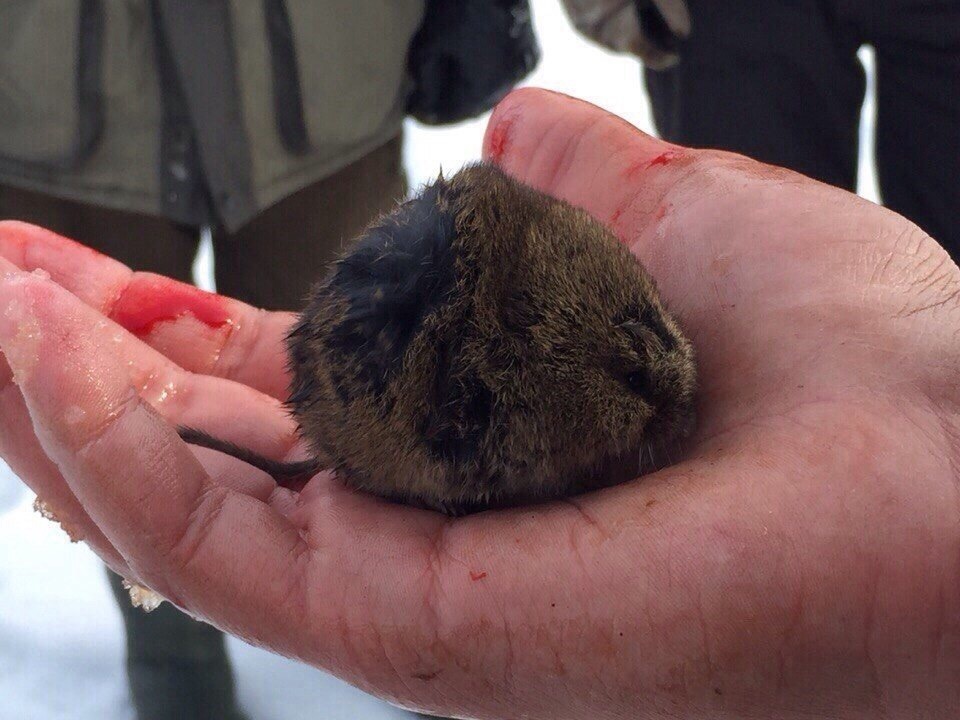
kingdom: Animalia
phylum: Chordata
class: Mammalia
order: Rodentia
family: Cricetidae
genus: Microtus
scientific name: Microtus agrestis
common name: Field vole
